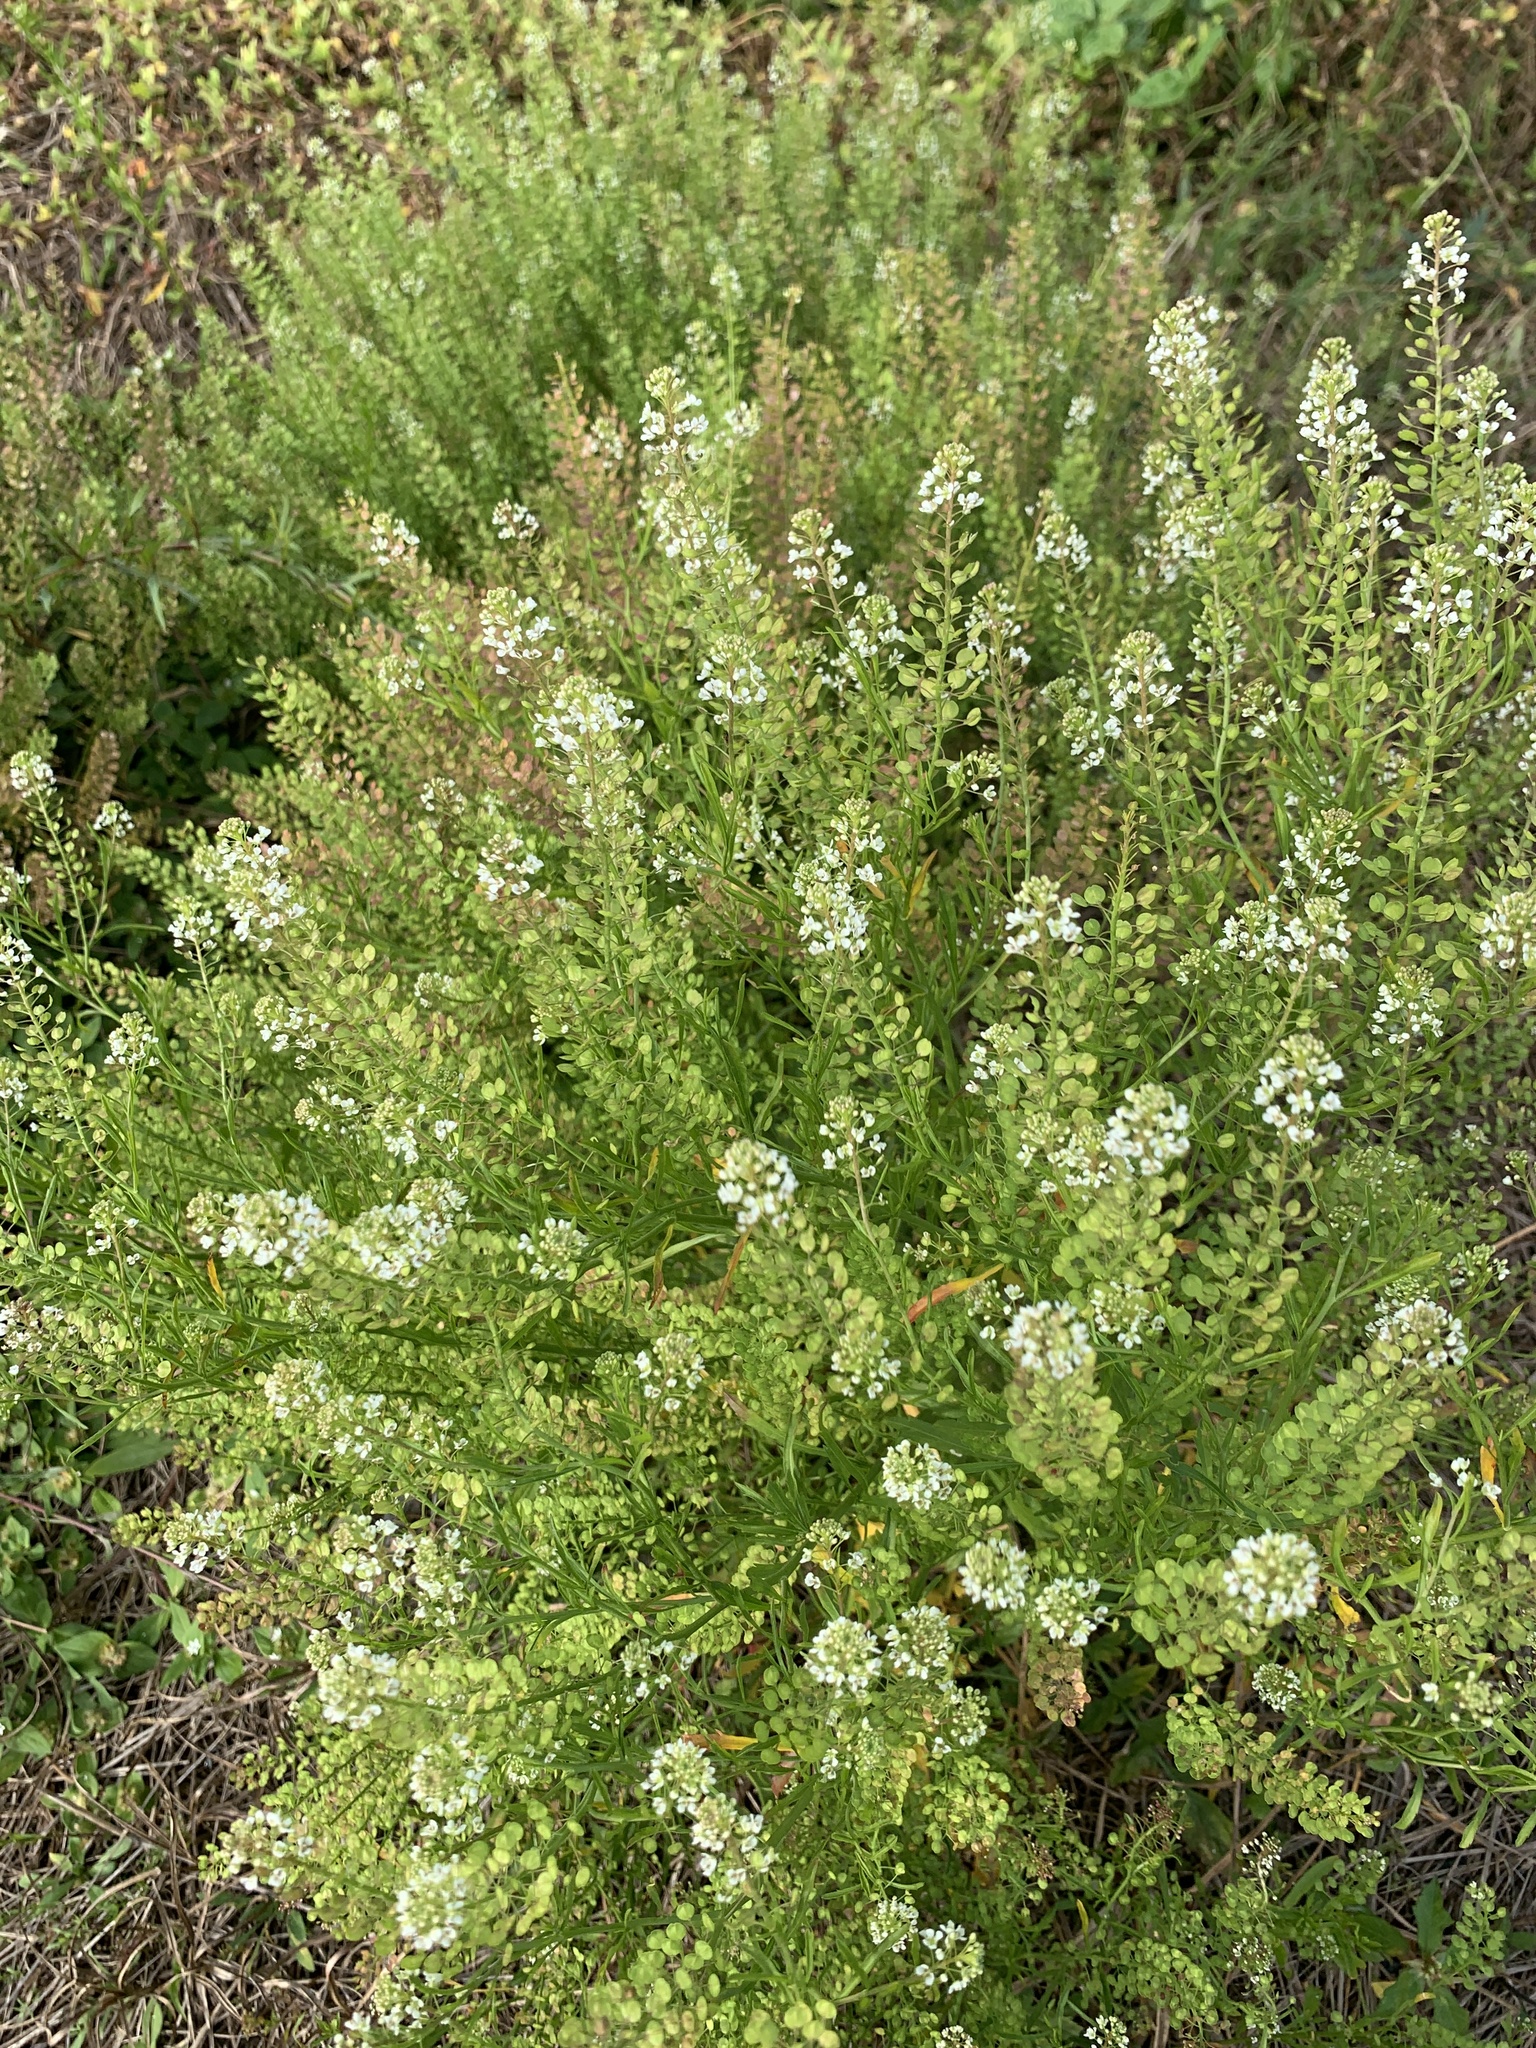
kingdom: Plantae
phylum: Tracheophyta
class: Magnoliopsida
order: Brassicales
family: Brassicaceae
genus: Lepidium
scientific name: Lepidium virginicum
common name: Least pepperwort
